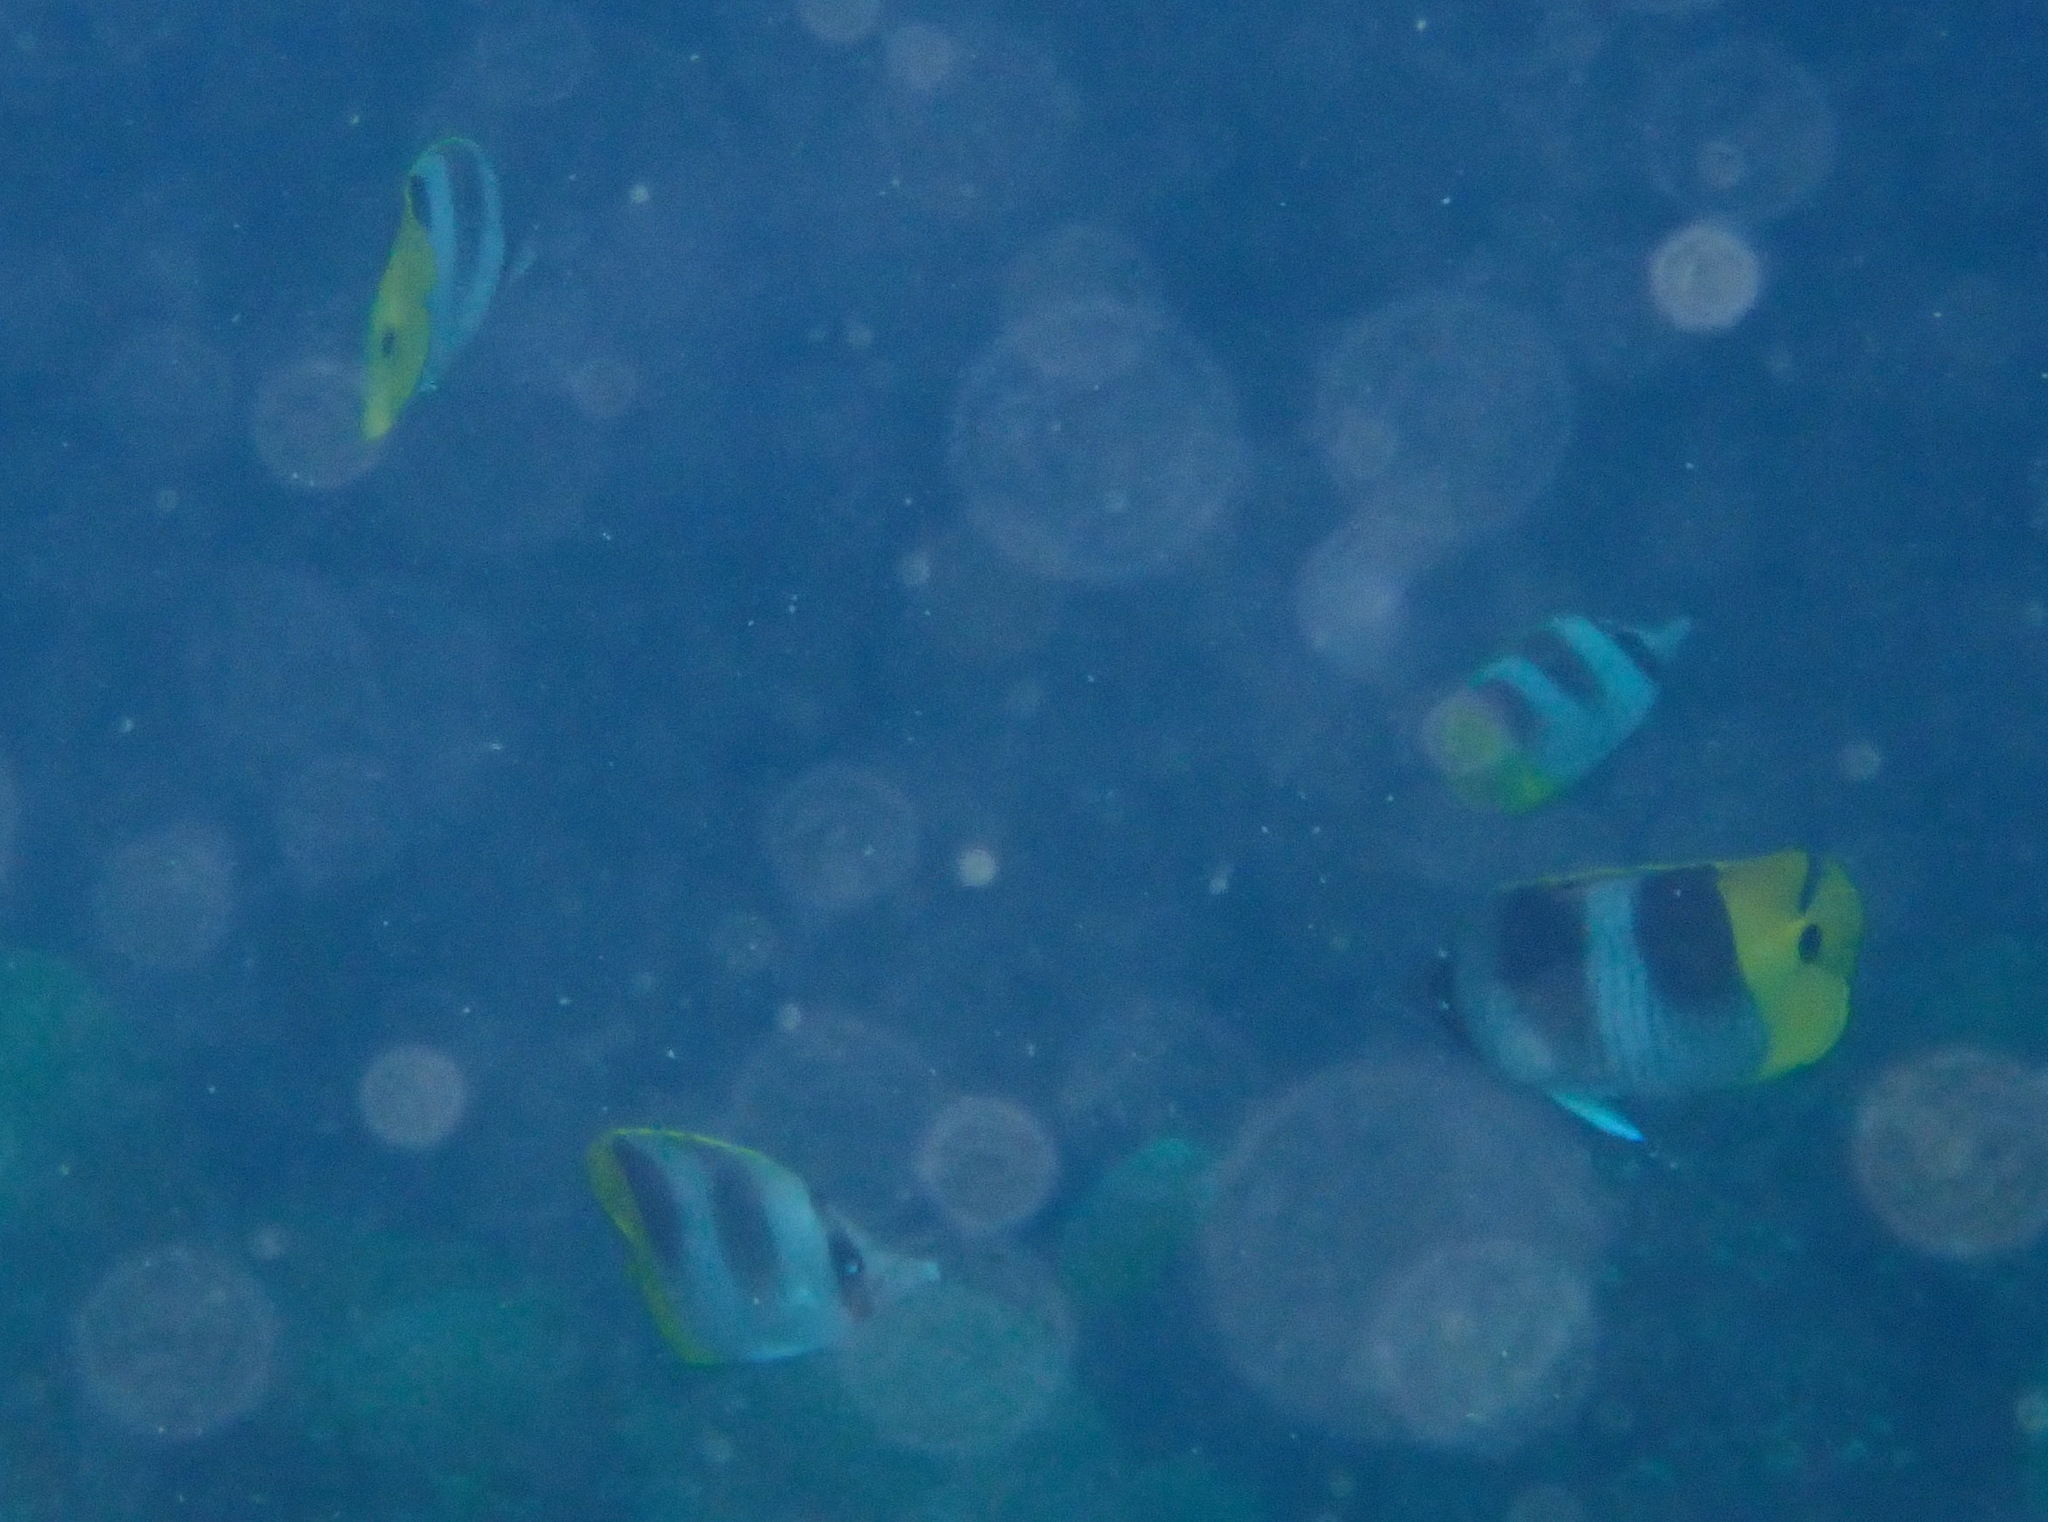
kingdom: Animalia
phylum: Chordata
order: Perciformes
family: Chaetodontidae
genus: Chaetodon
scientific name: Chaetodon ulietensis
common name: Pacific double-saddle butterflyfish
